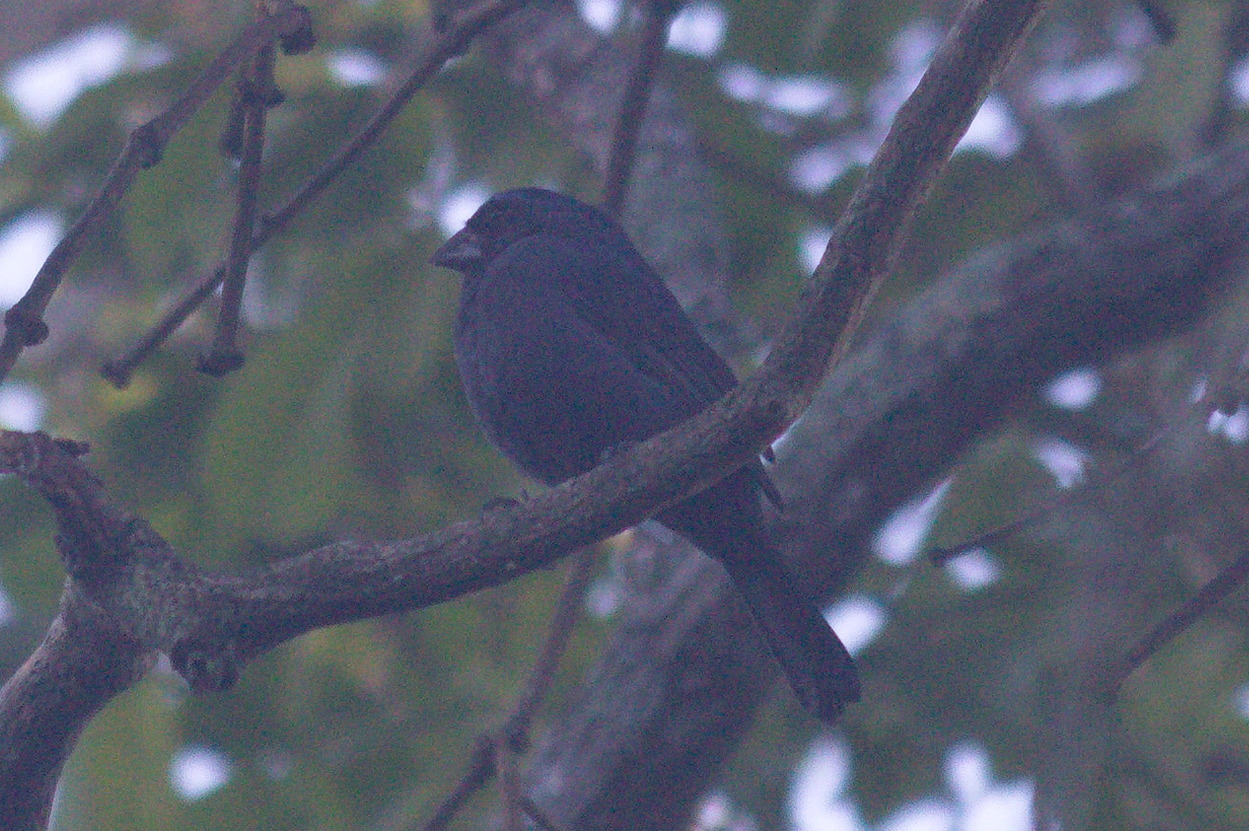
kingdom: Animalia
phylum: Chordata
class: Aves
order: Passeriformes
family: Cardinalidae
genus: Cyanoloxia
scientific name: Cyanoloxia brissonii
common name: Ultramarine grosbeak
